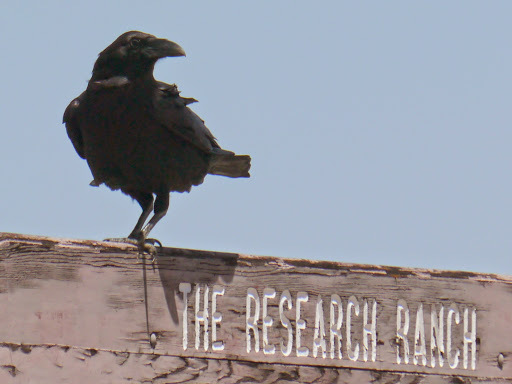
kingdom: Animalia
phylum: Chordata
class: Aves
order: Passeriformes
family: Corvidae
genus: Corvus
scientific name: Corvus corax
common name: Common raven
